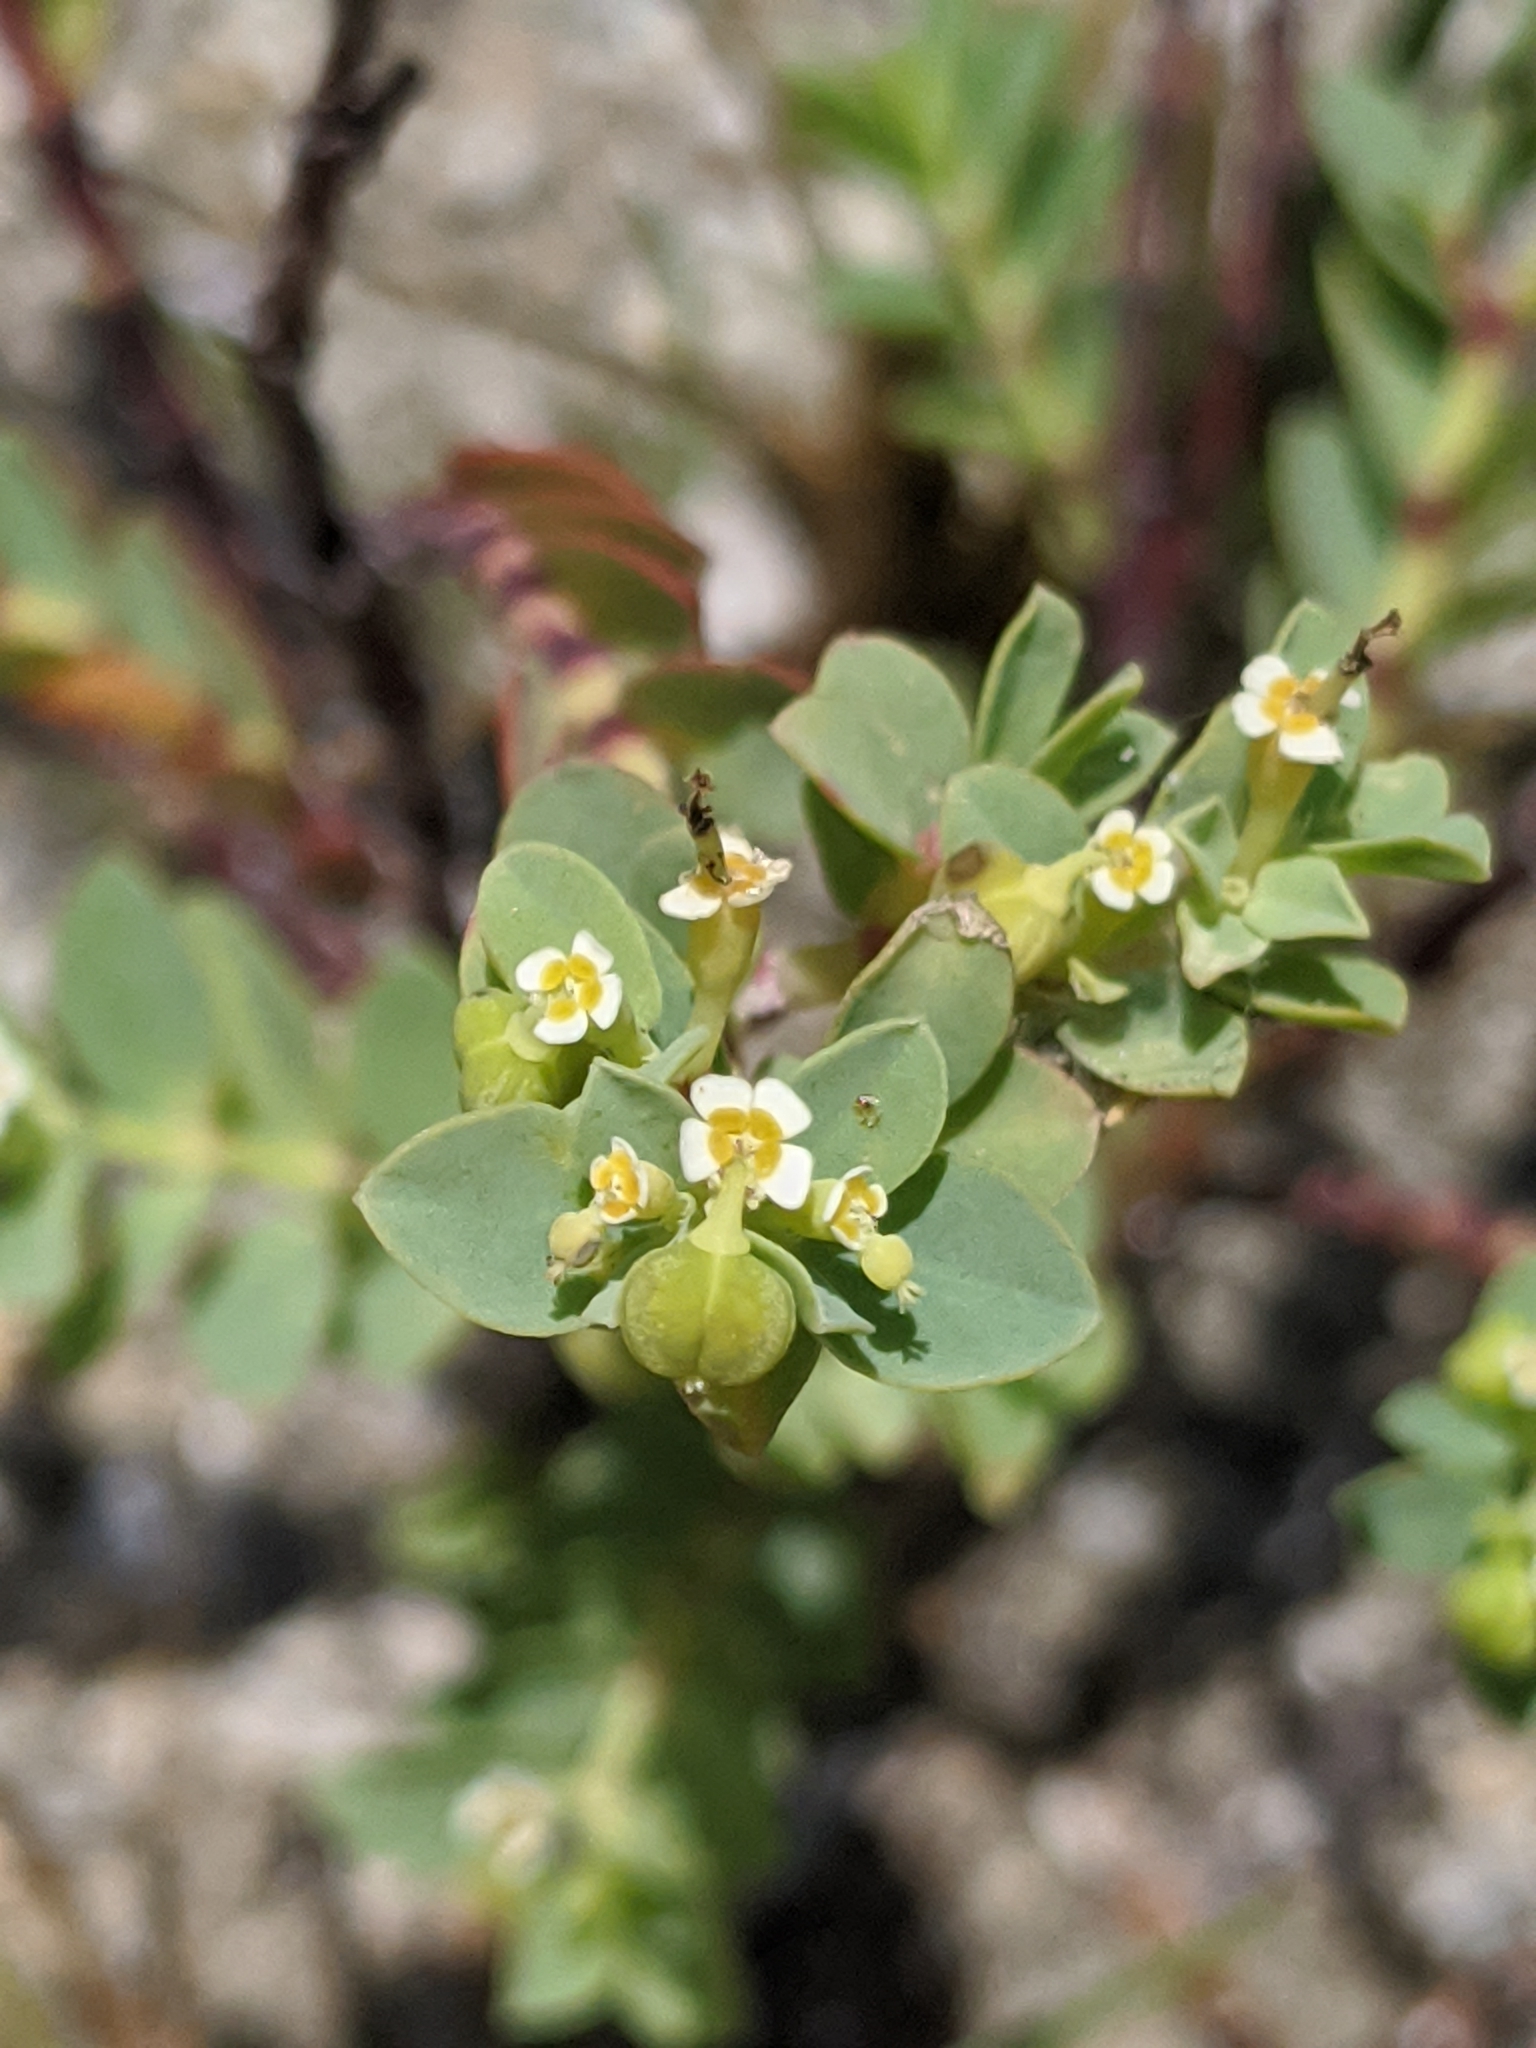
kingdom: Plantae
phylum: Tracheophyta
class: Magnoliopsida
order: Malpighiales
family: Euphorbiaceae
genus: Euphorbia
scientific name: Euphorbia mesembryanthemifolia
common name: Coastal beach sandmat
